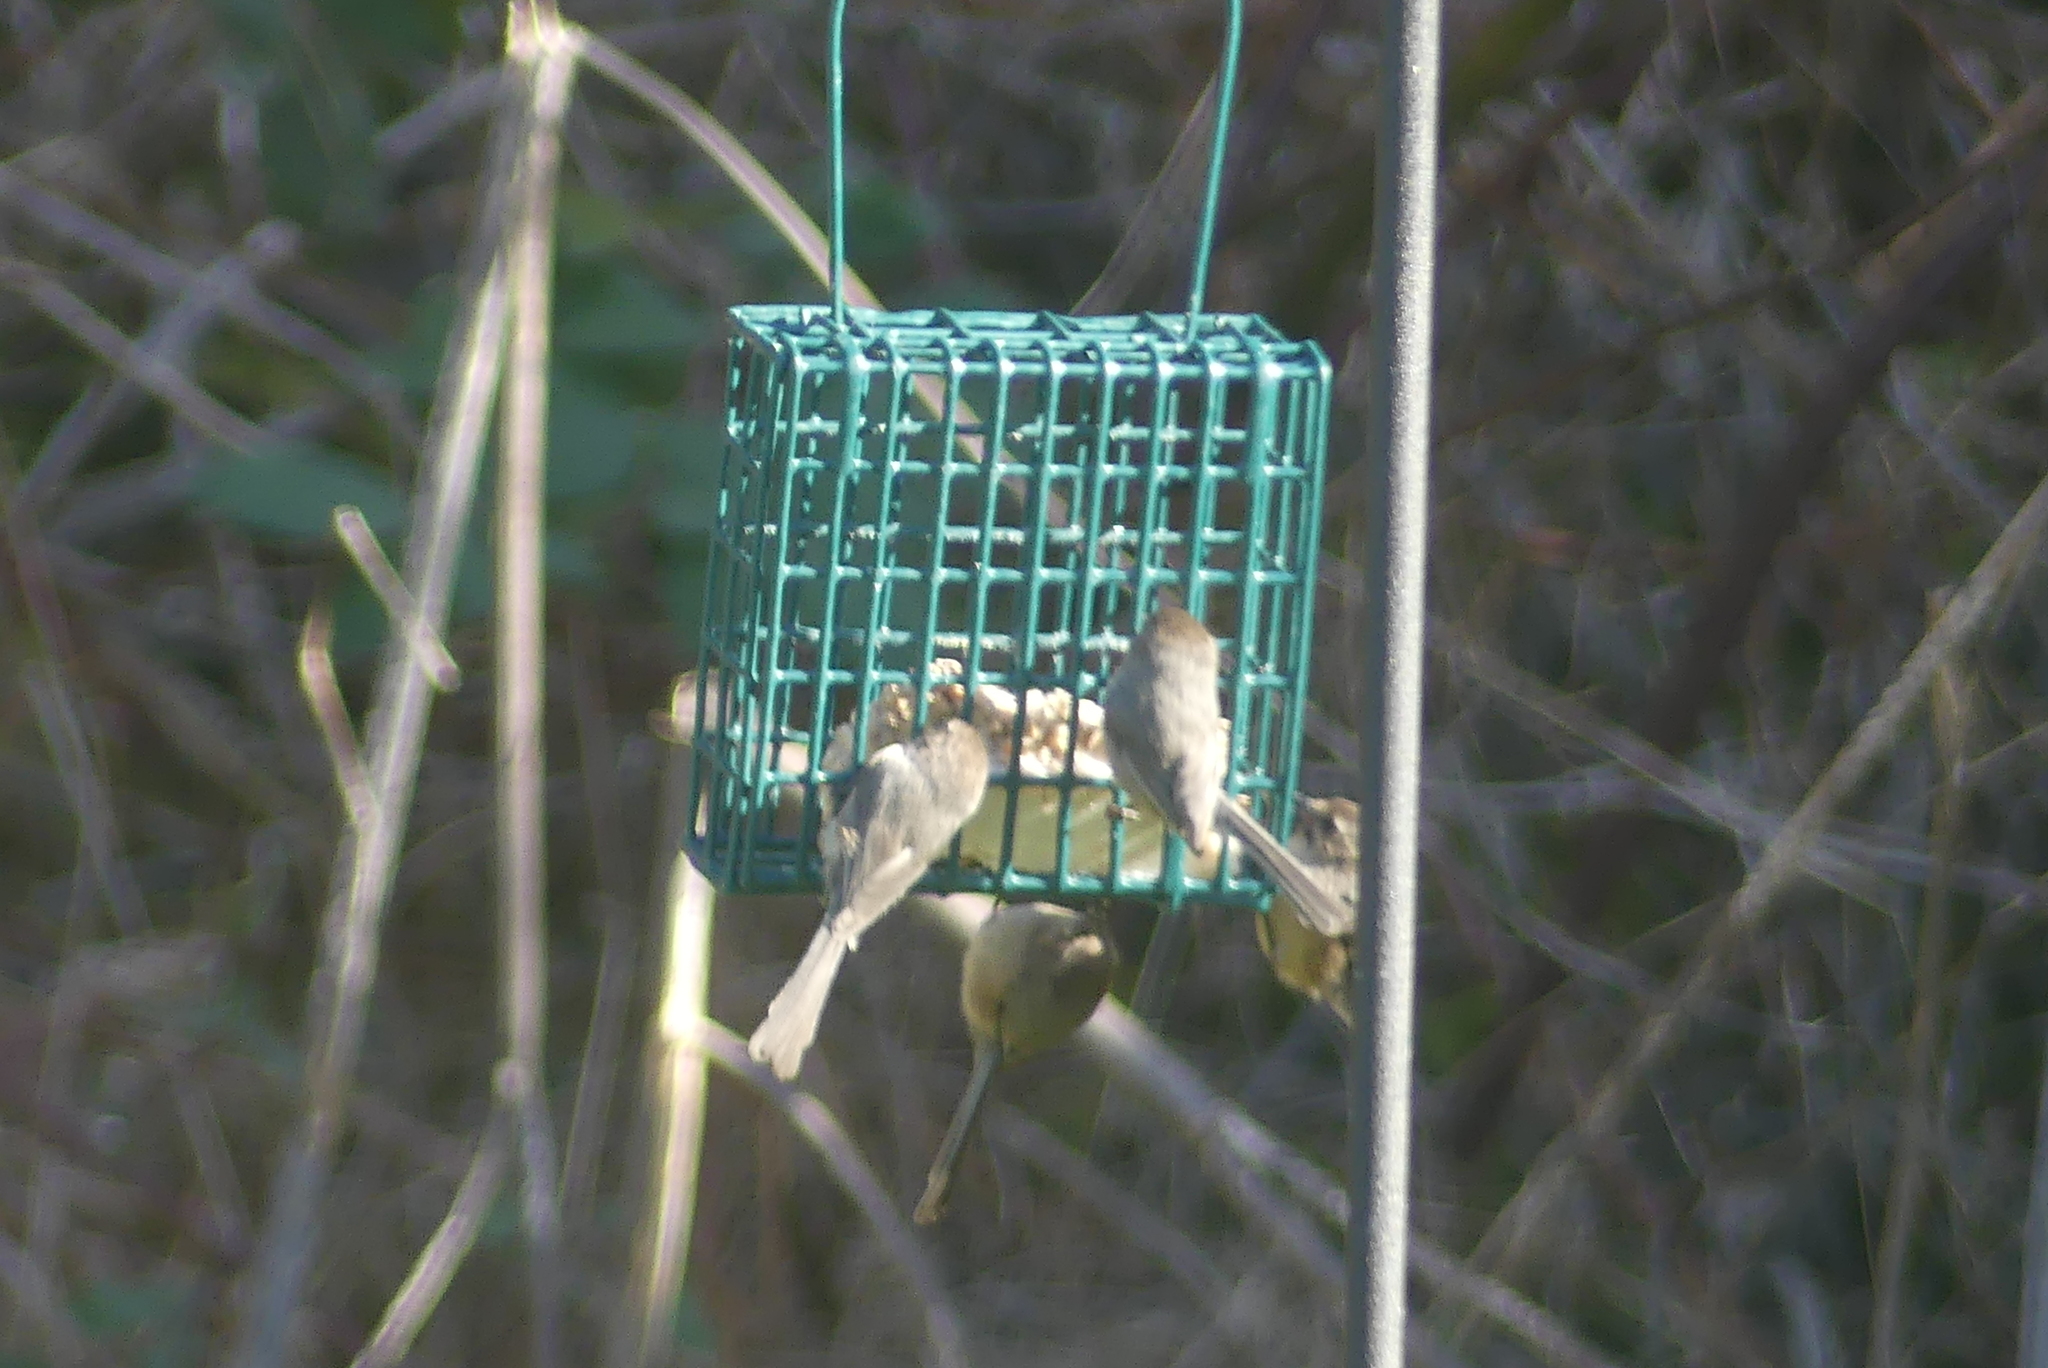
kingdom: Animalia
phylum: Chordata
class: Aves
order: Passeriformes
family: Aegithalidae
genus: Psaltriparus
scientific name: Psaltriparus minimus
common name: American bushtit
